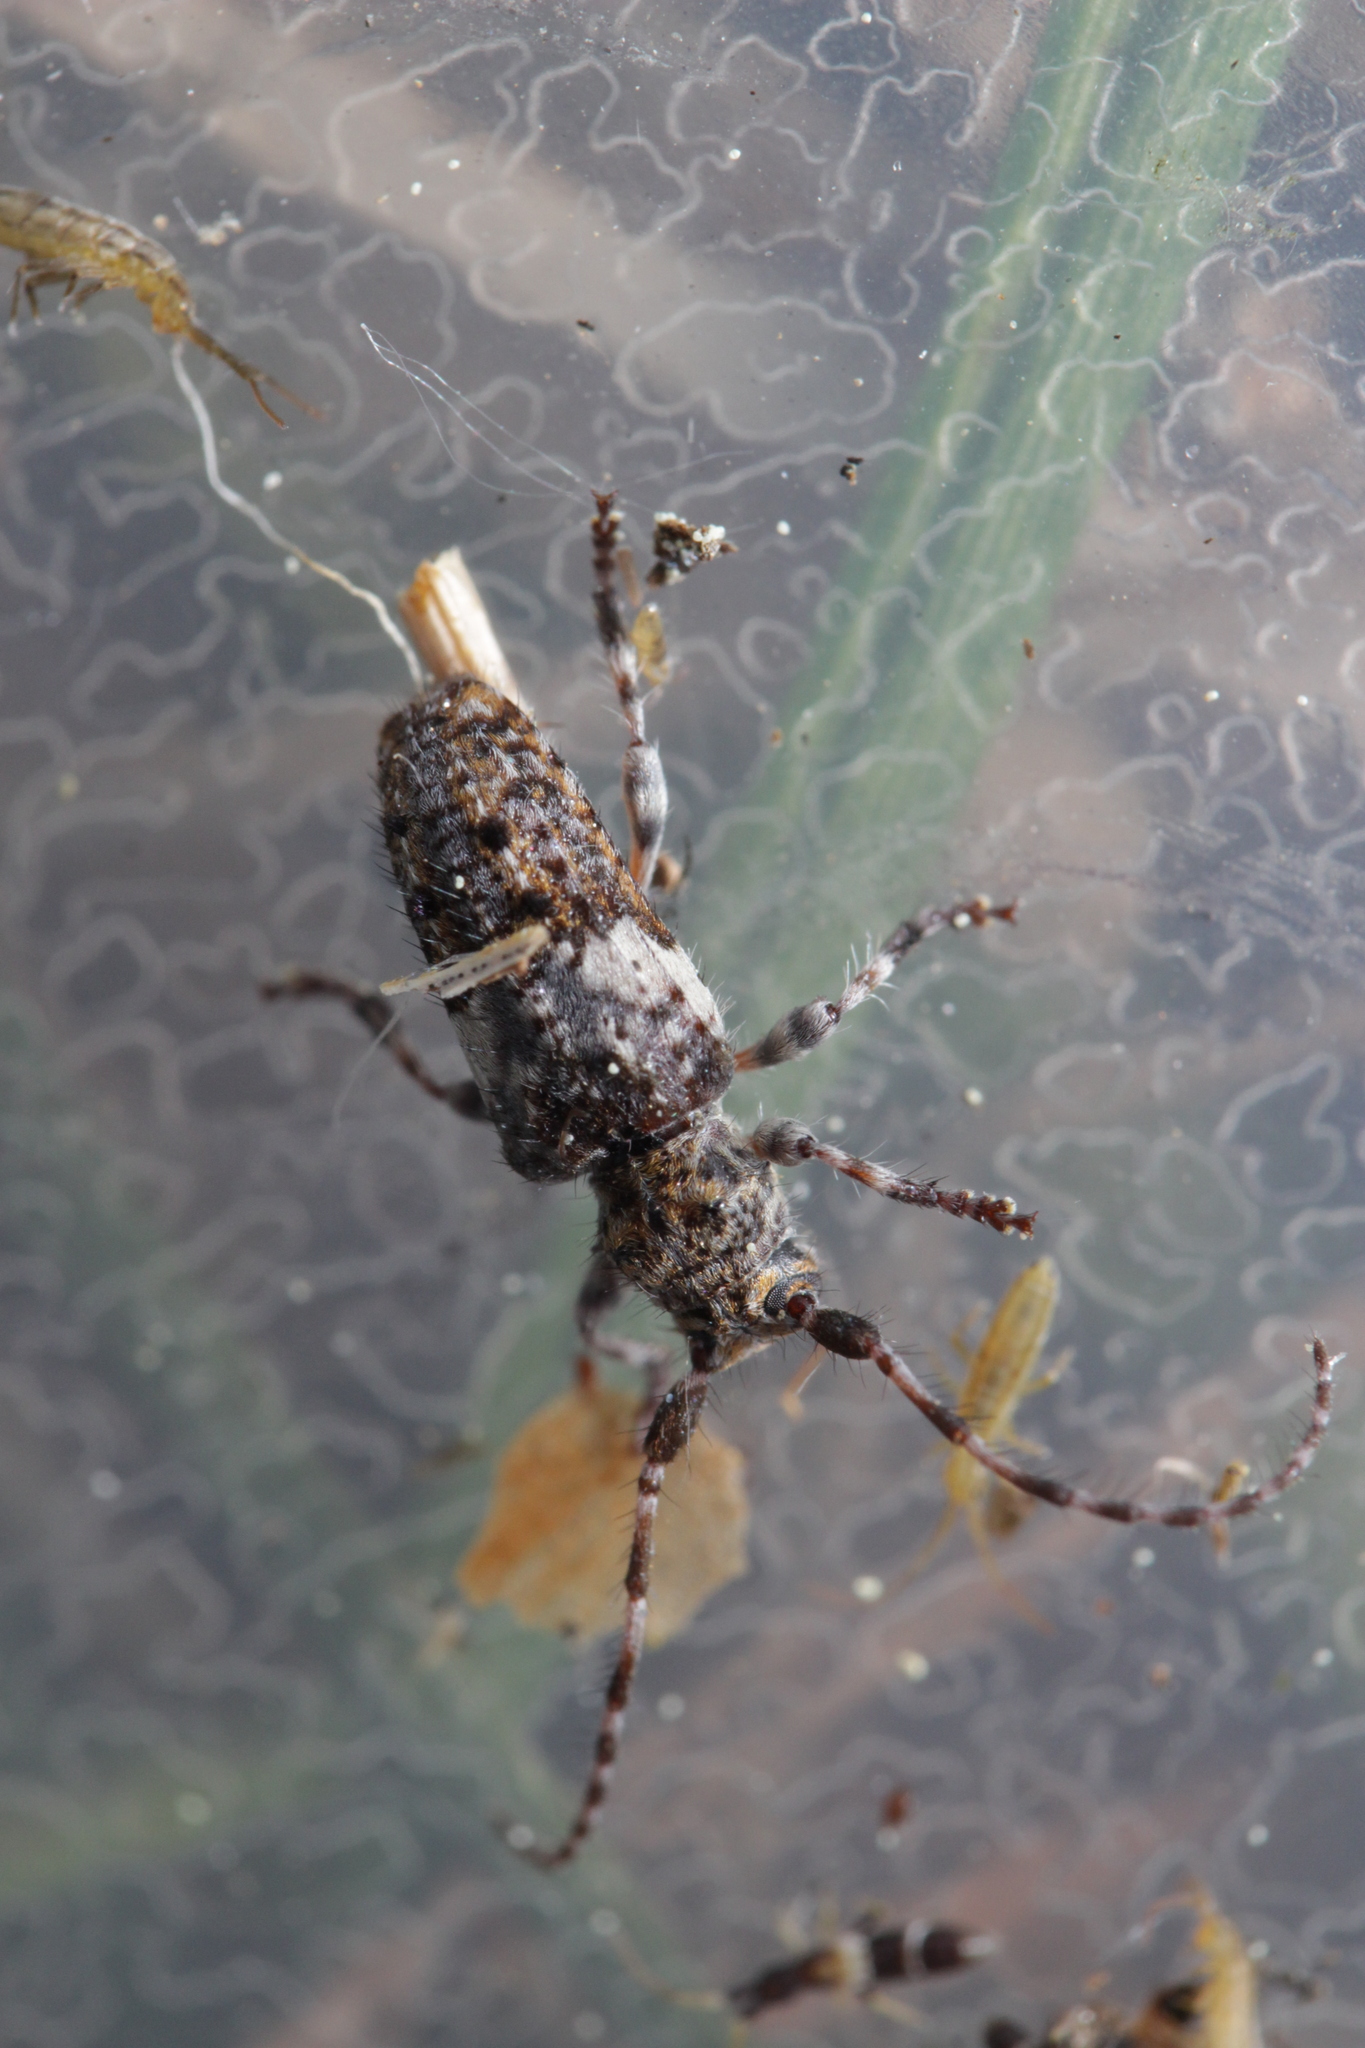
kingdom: Animalia
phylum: Arthropoda
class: Insecta
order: Coleoptera
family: Cerambycidae
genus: Pogonocherus
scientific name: Pogonocherus fasciculatus
